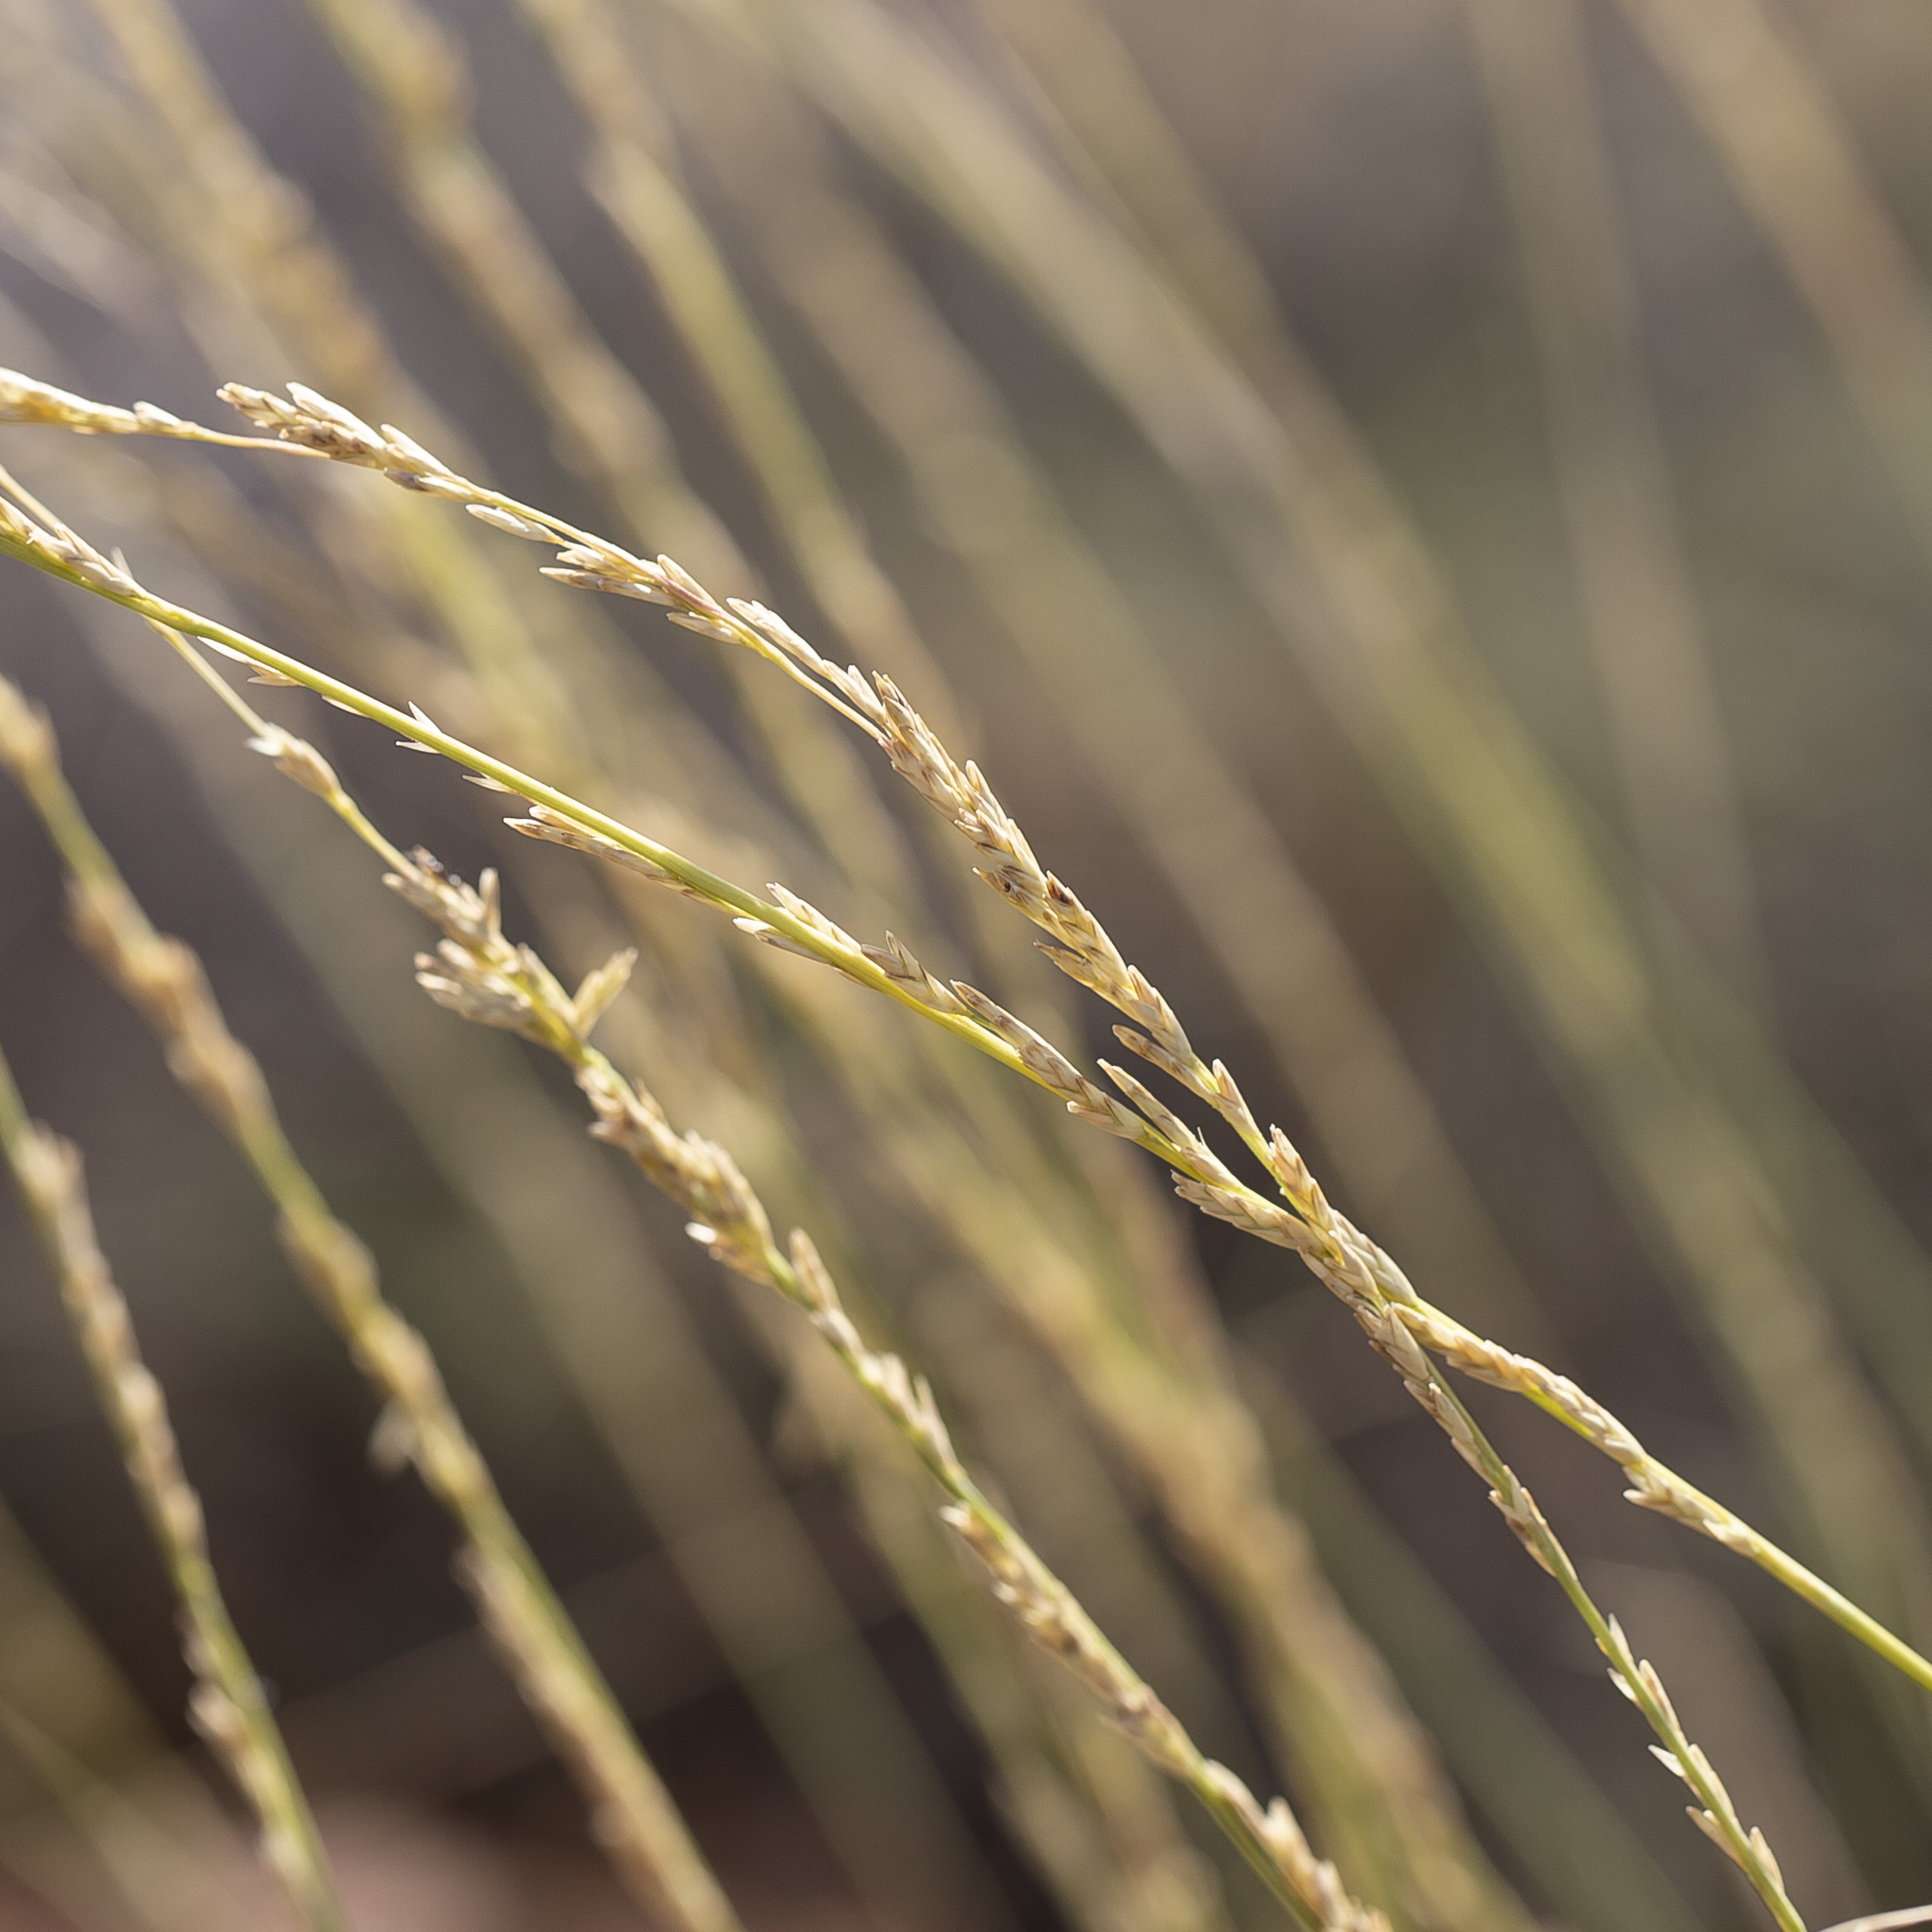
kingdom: Plantae
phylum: Tracheophyta
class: Liliopsida
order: Poales
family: Poaceae
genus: Triodia
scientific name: Triodia longiceps
